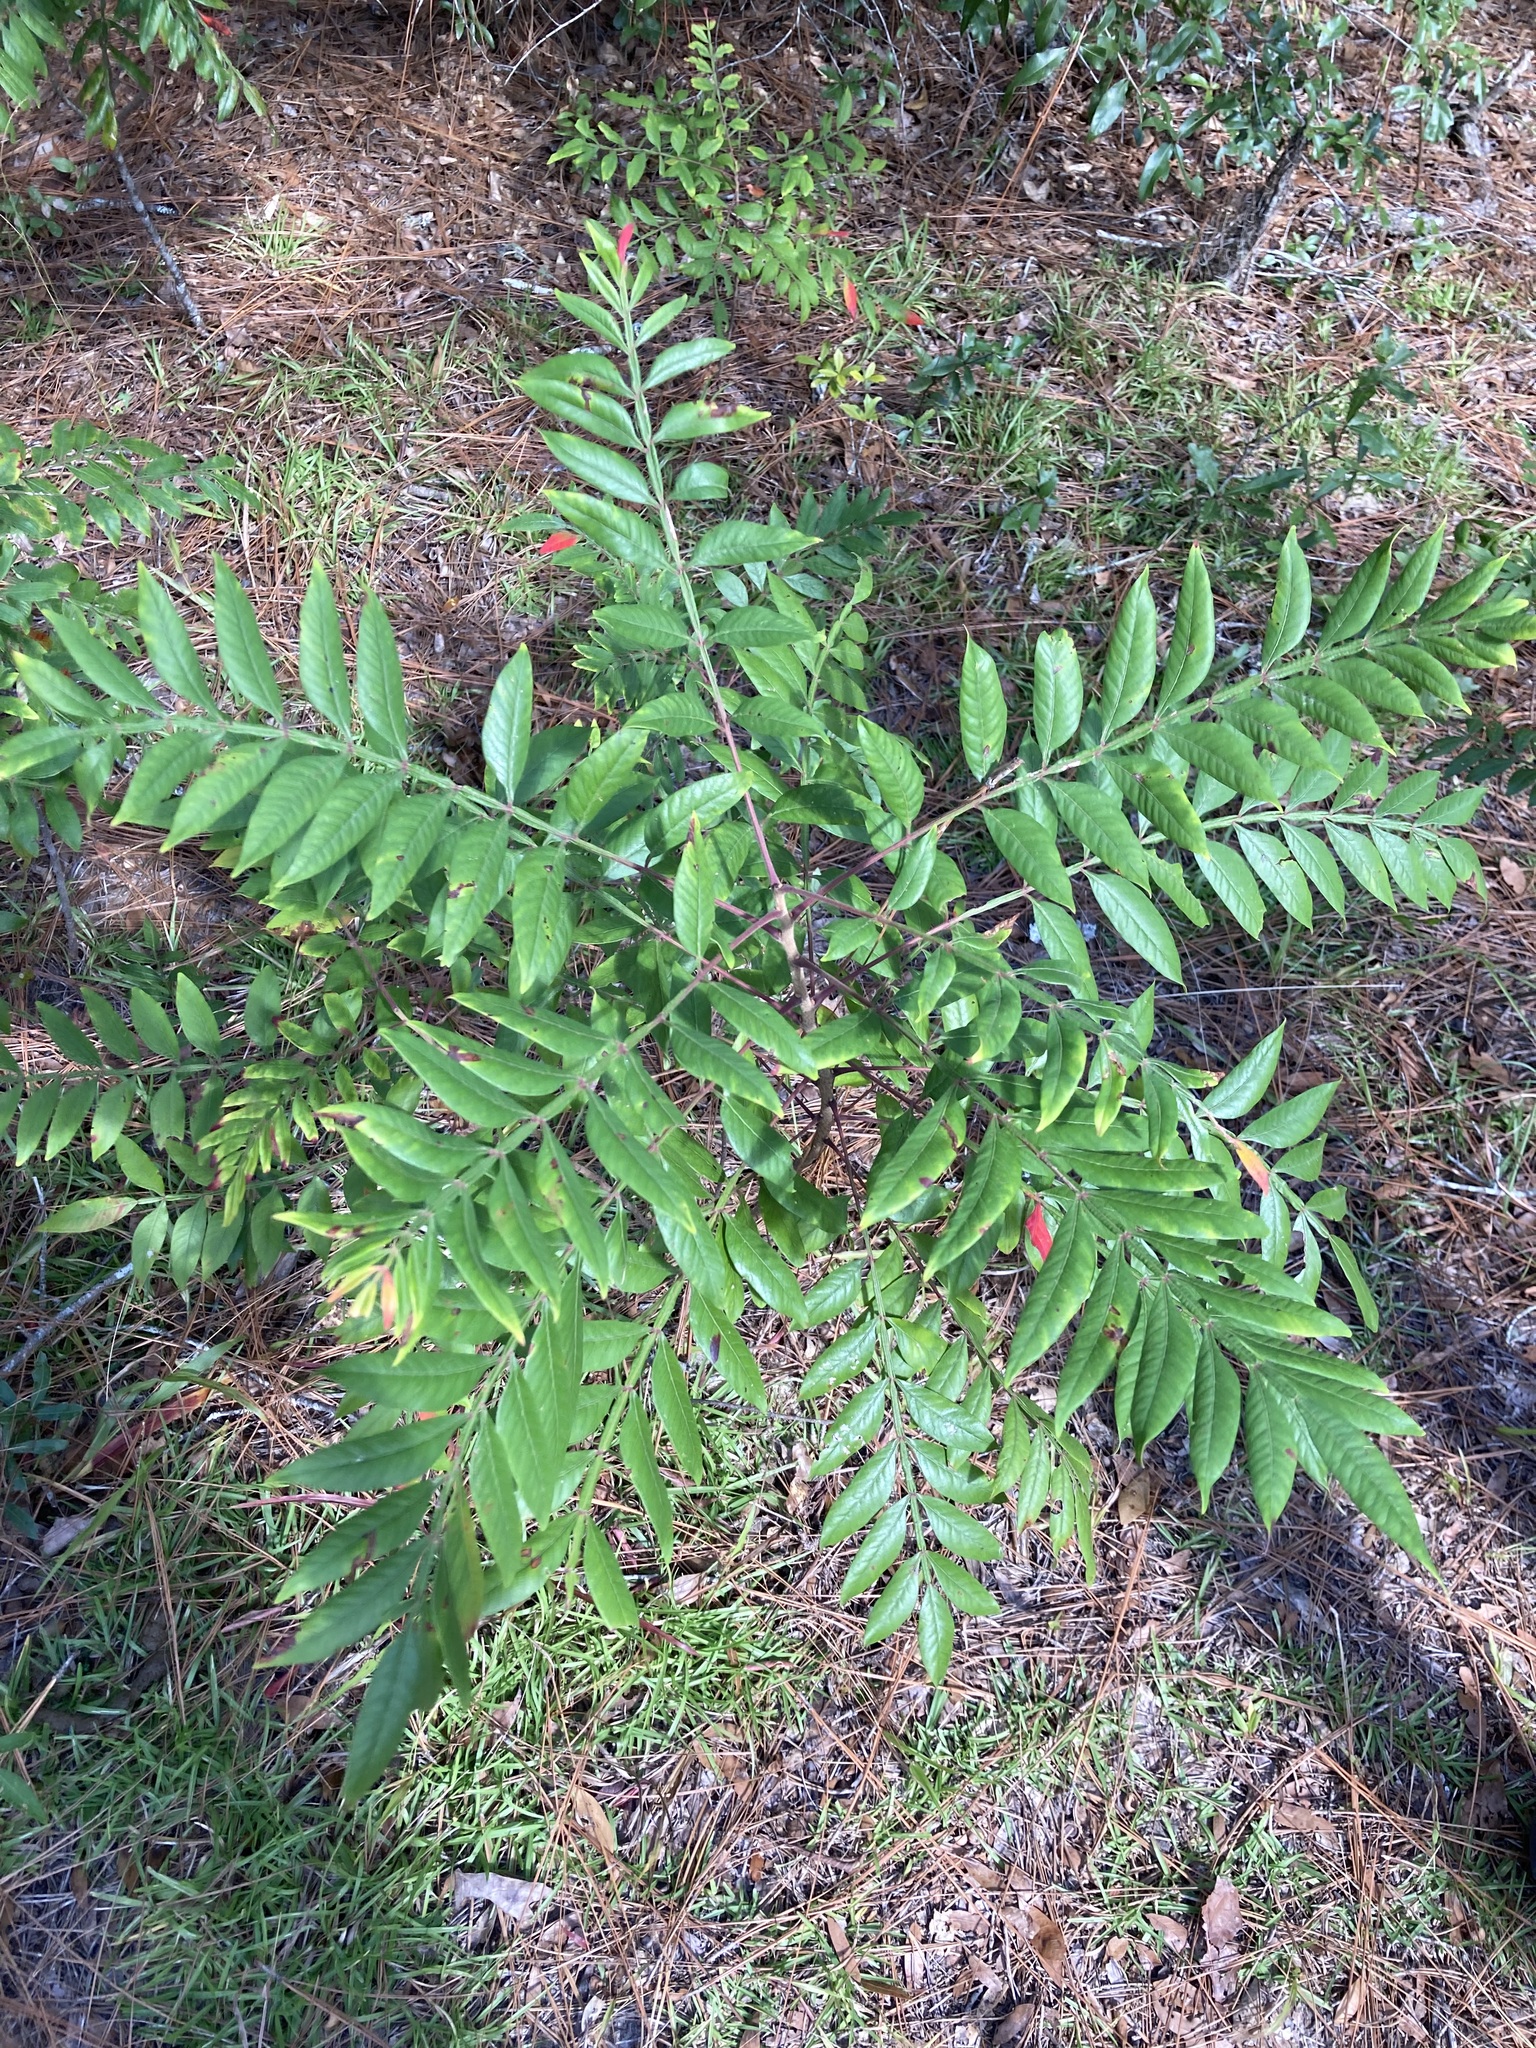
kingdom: Plantae
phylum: Tracheophyta
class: Magnoliopsida
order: Sapindales
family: Anacardiaceae
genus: Rhus
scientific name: Rhus copallina
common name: Shining sumac
